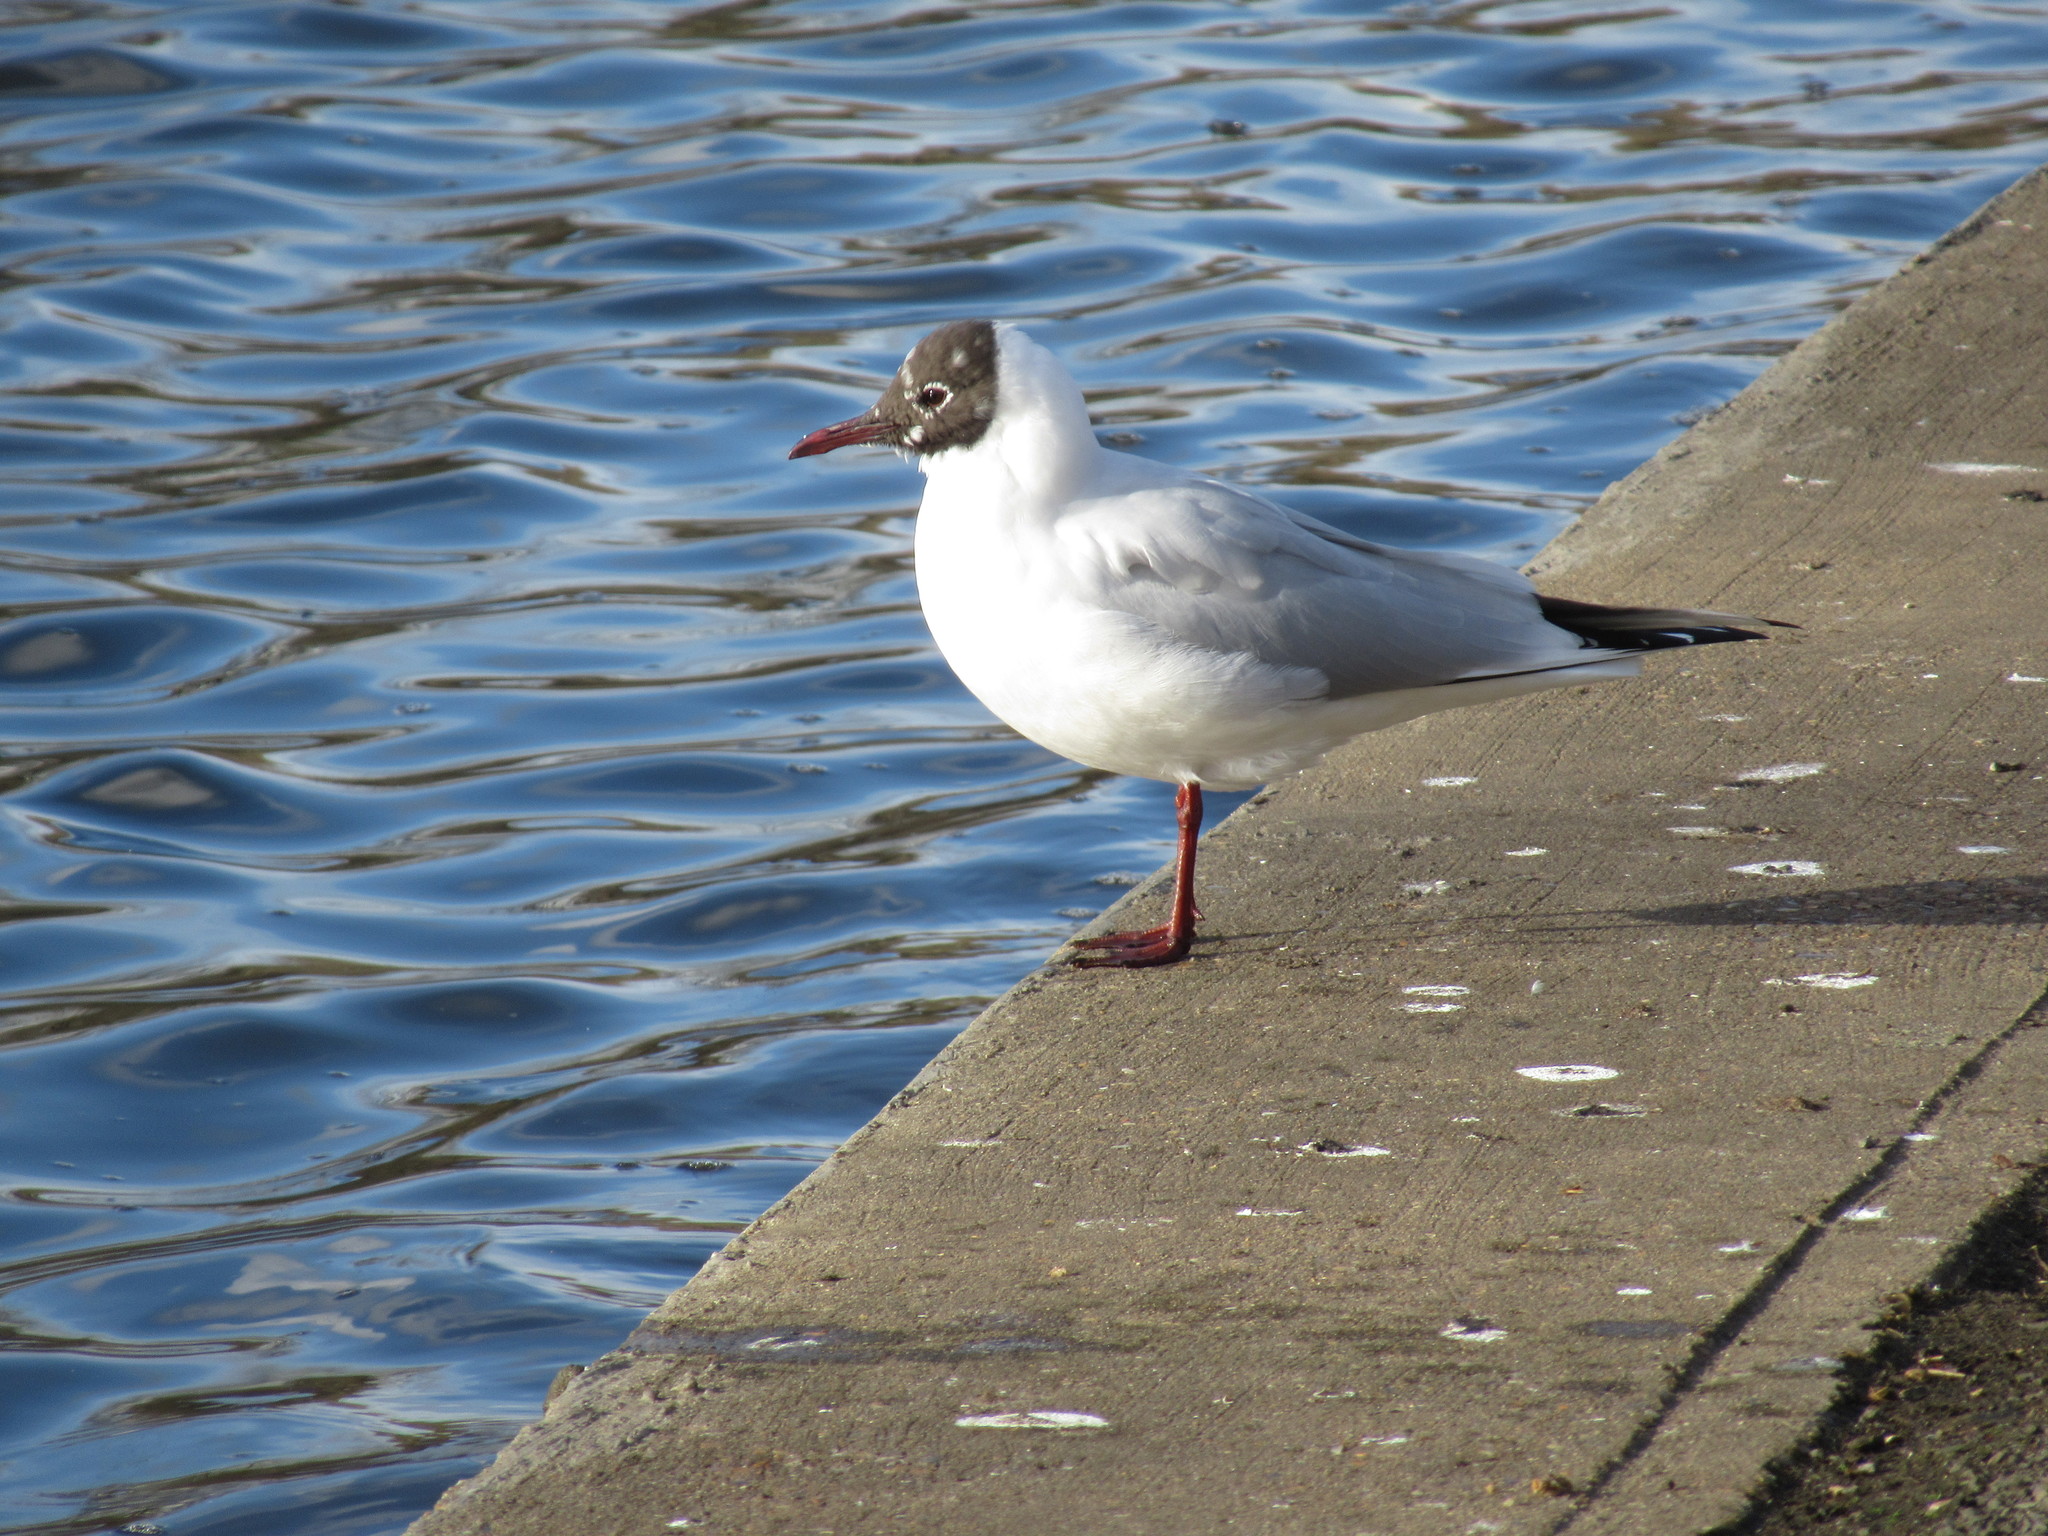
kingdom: Animalia
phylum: Chordata
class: Aves
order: Charadriiformes
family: Laridae
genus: Chroicocephalus
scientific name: Chroicocephalus ridibundus
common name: Black-headed gull
